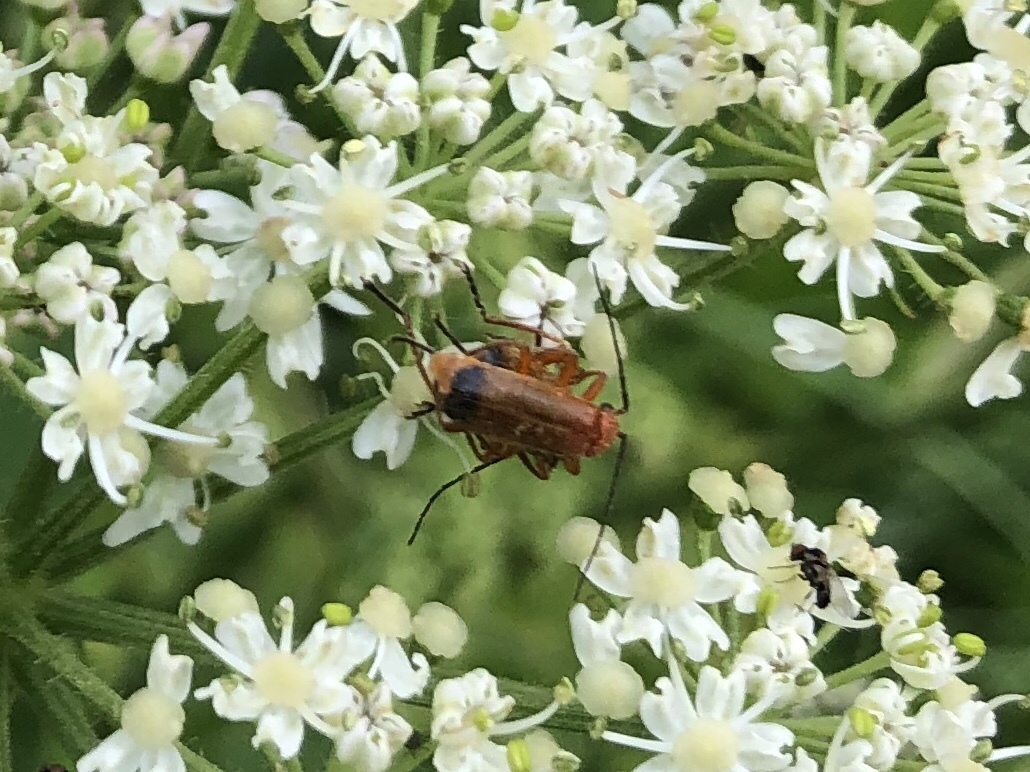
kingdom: Animalia
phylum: Arthropoda
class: Insecta
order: Coleoptera
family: Cantharidae
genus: Rhagonycha
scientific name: Rhagonycha fulva
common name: Common red soldier beetle
